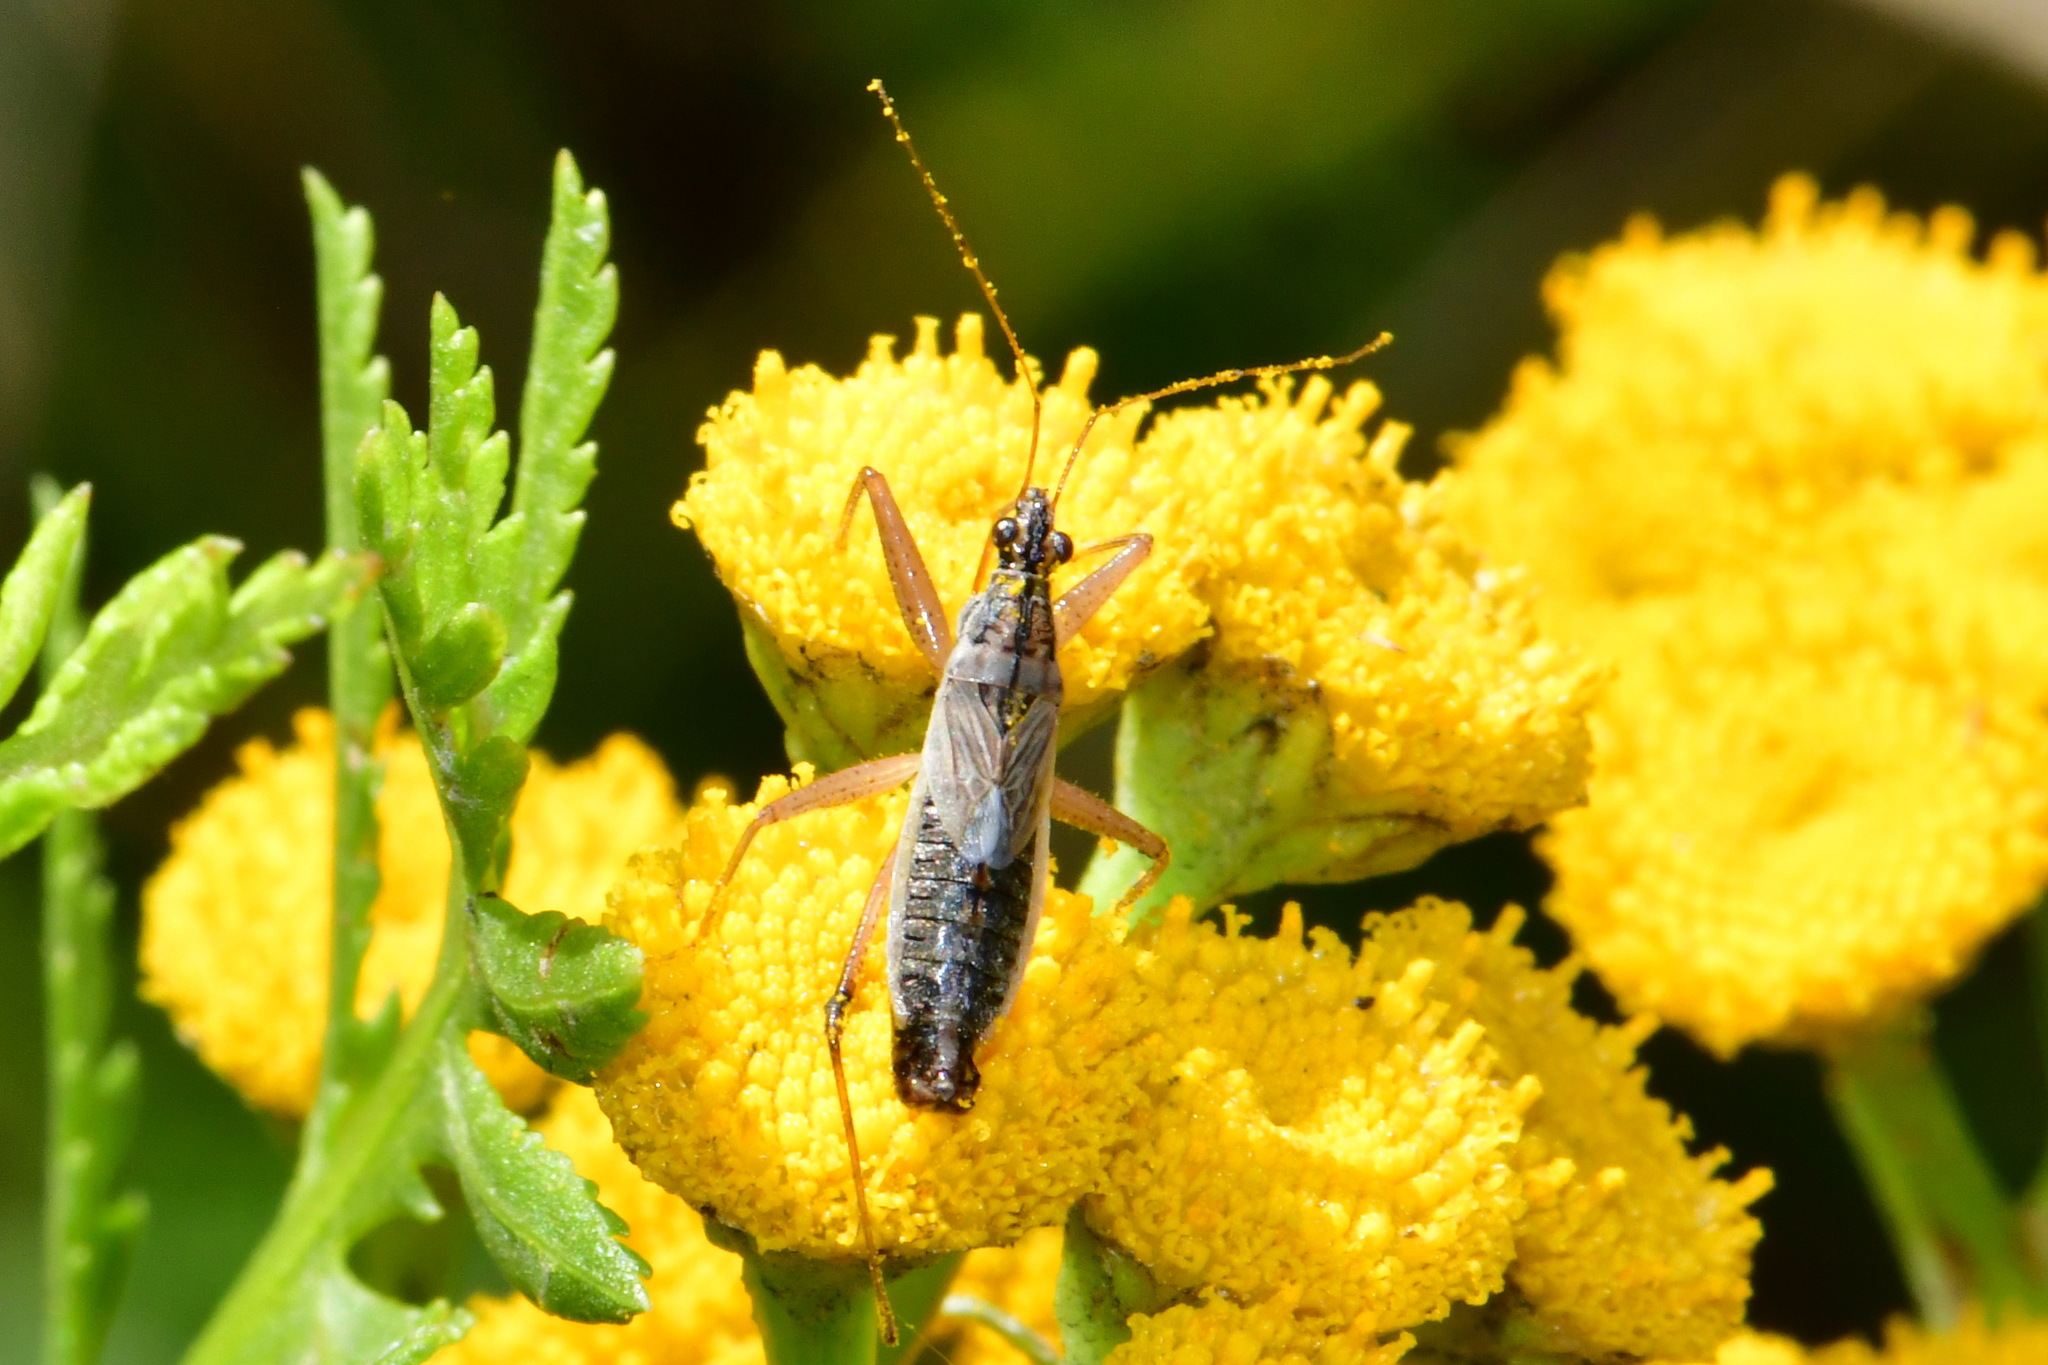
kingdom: Animalia
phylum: Arthropoda
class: Insecta
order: Hemiptera
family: Nabidae
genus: Nabis
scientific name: Nabis flavomarginatus
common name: Broad damselbug
